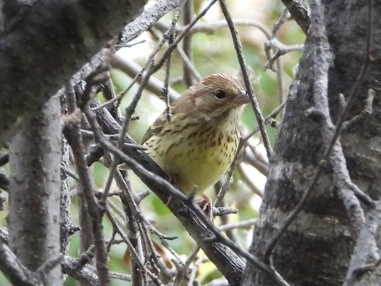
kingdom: Animalia
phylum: Chordata
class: Aves
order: Passeriformes
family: Emberizidae
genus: Emberiza
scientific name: Emberiza aureola
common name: Yellow-breasted bunting
